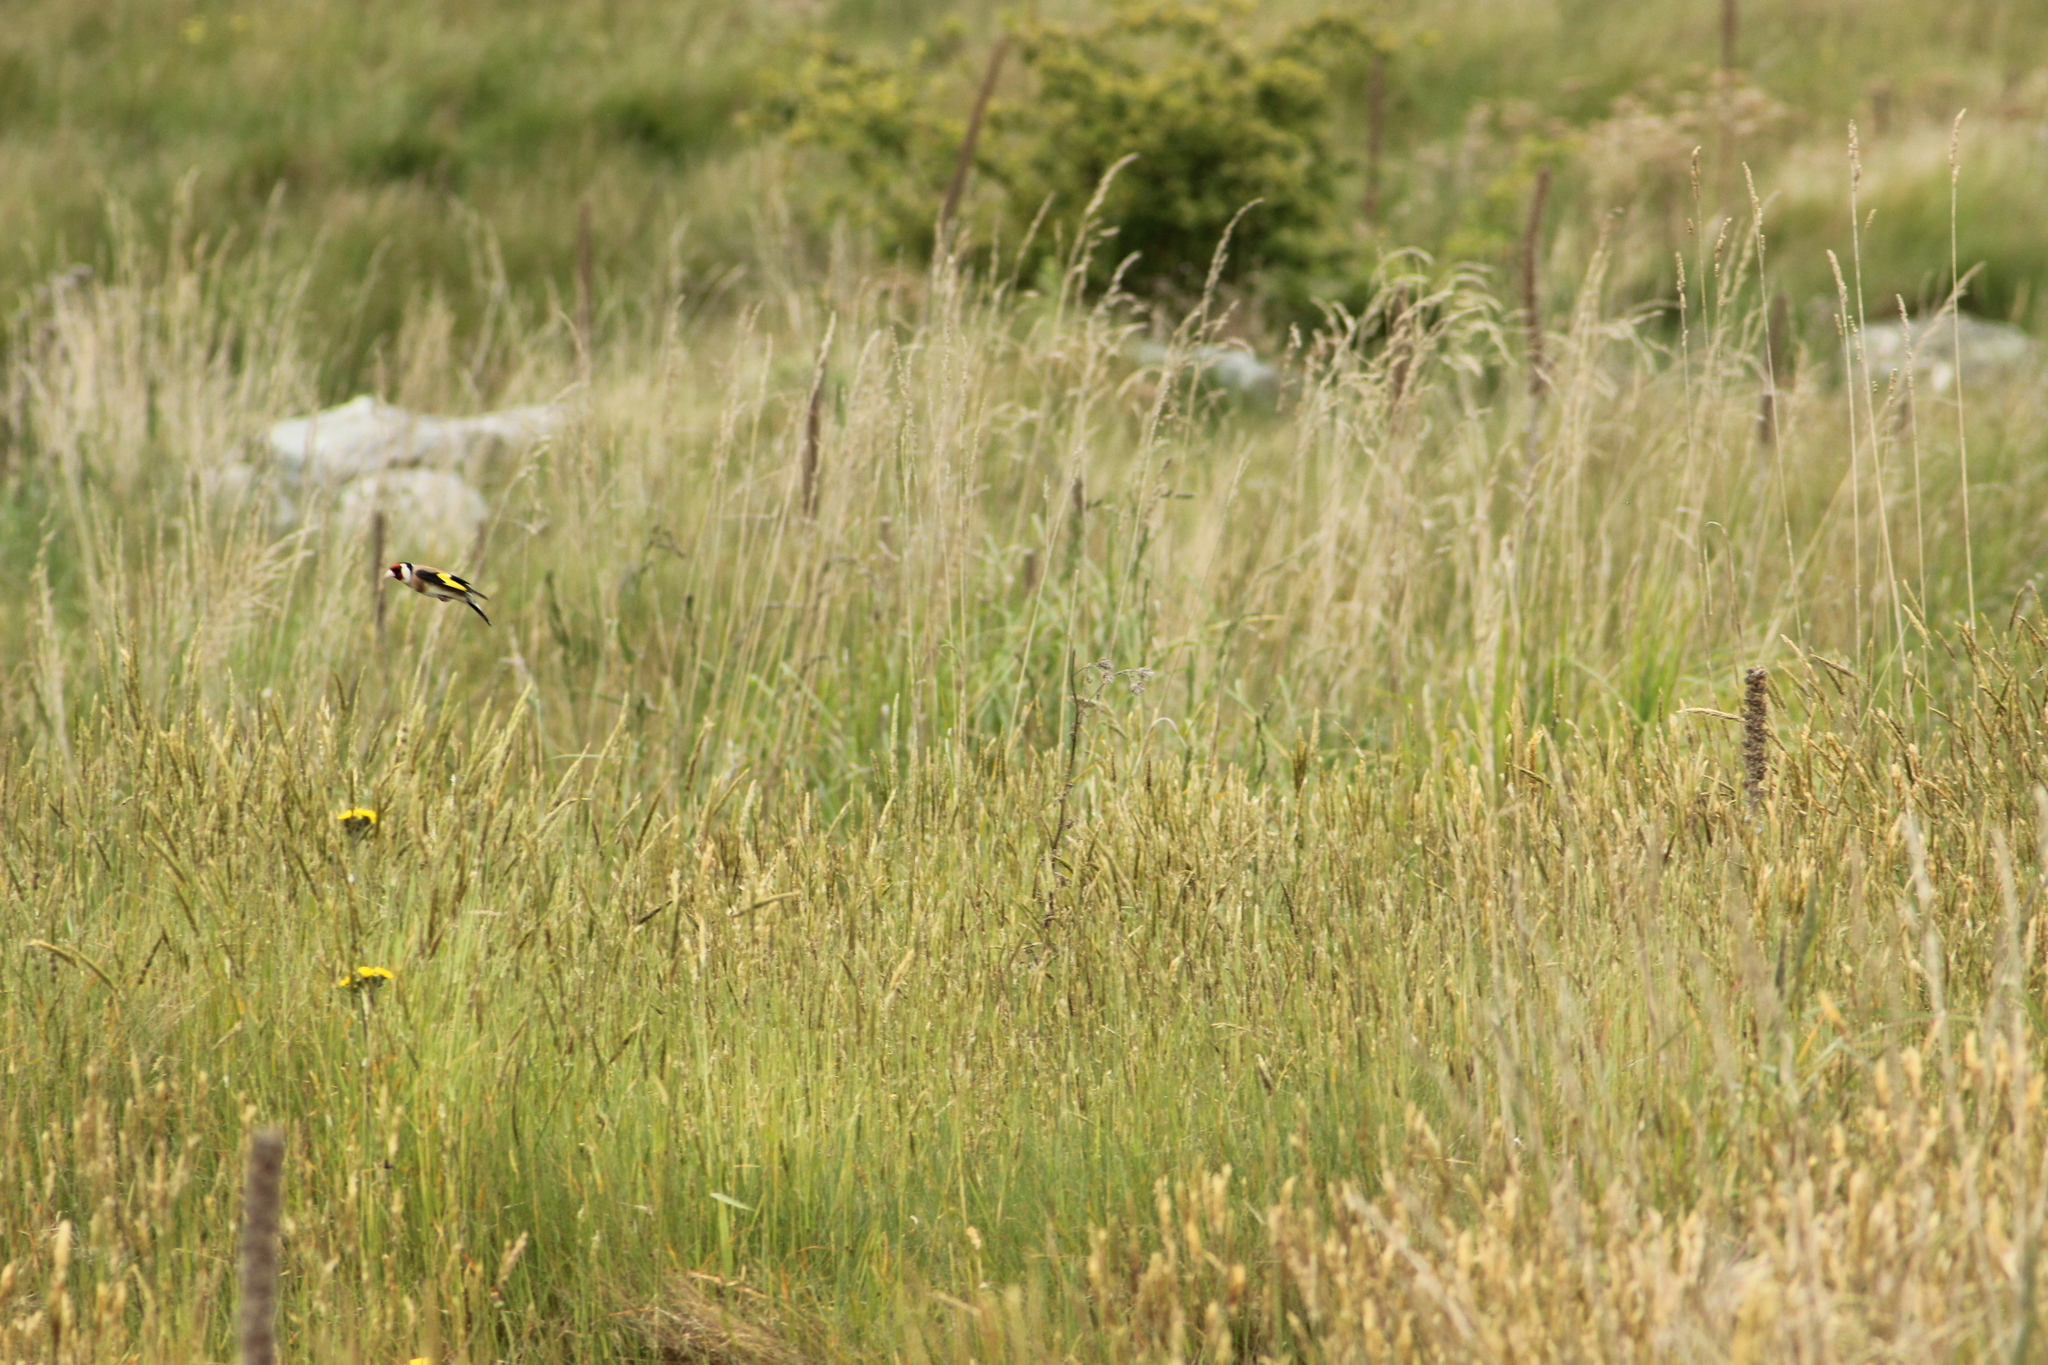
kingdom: Animalia
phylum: Chordata
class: Aves
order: Passeriformes
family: Fringillidae
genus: Carduelis
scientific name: Carduelis carduelis
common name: European goldfinch
